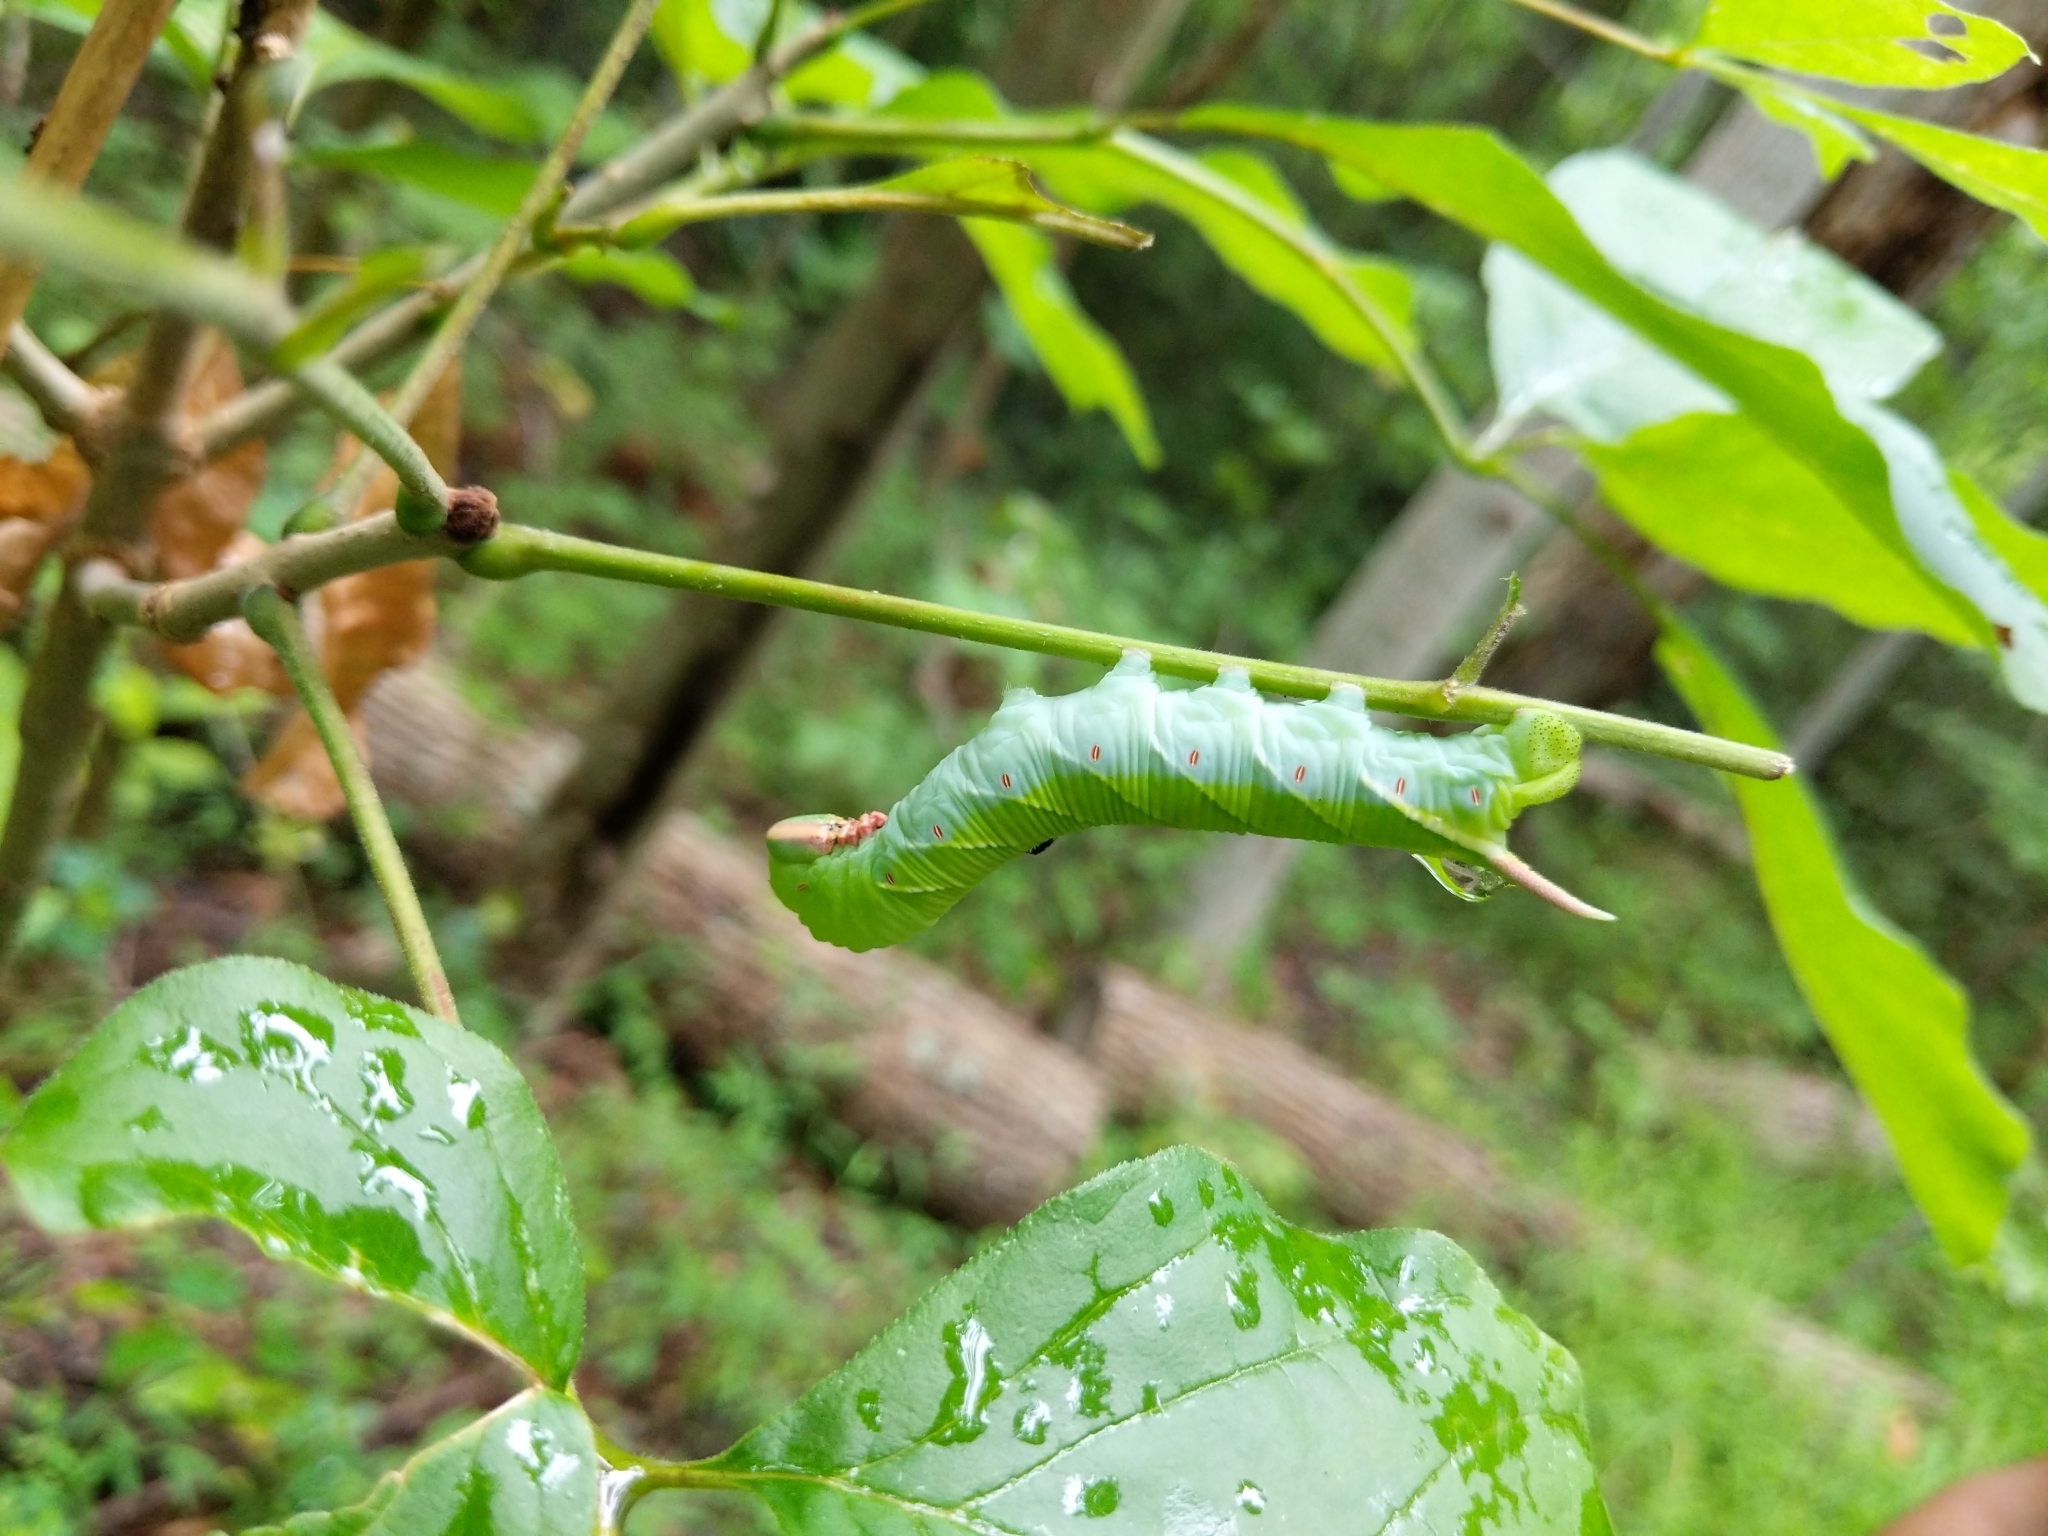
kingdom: Animalia
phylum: Arthropoda
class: Insecta
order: Lepidoptera
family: Sphingidae
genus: Ceratomia
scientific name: Ceratomia undulosa
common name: Waved sphinx
